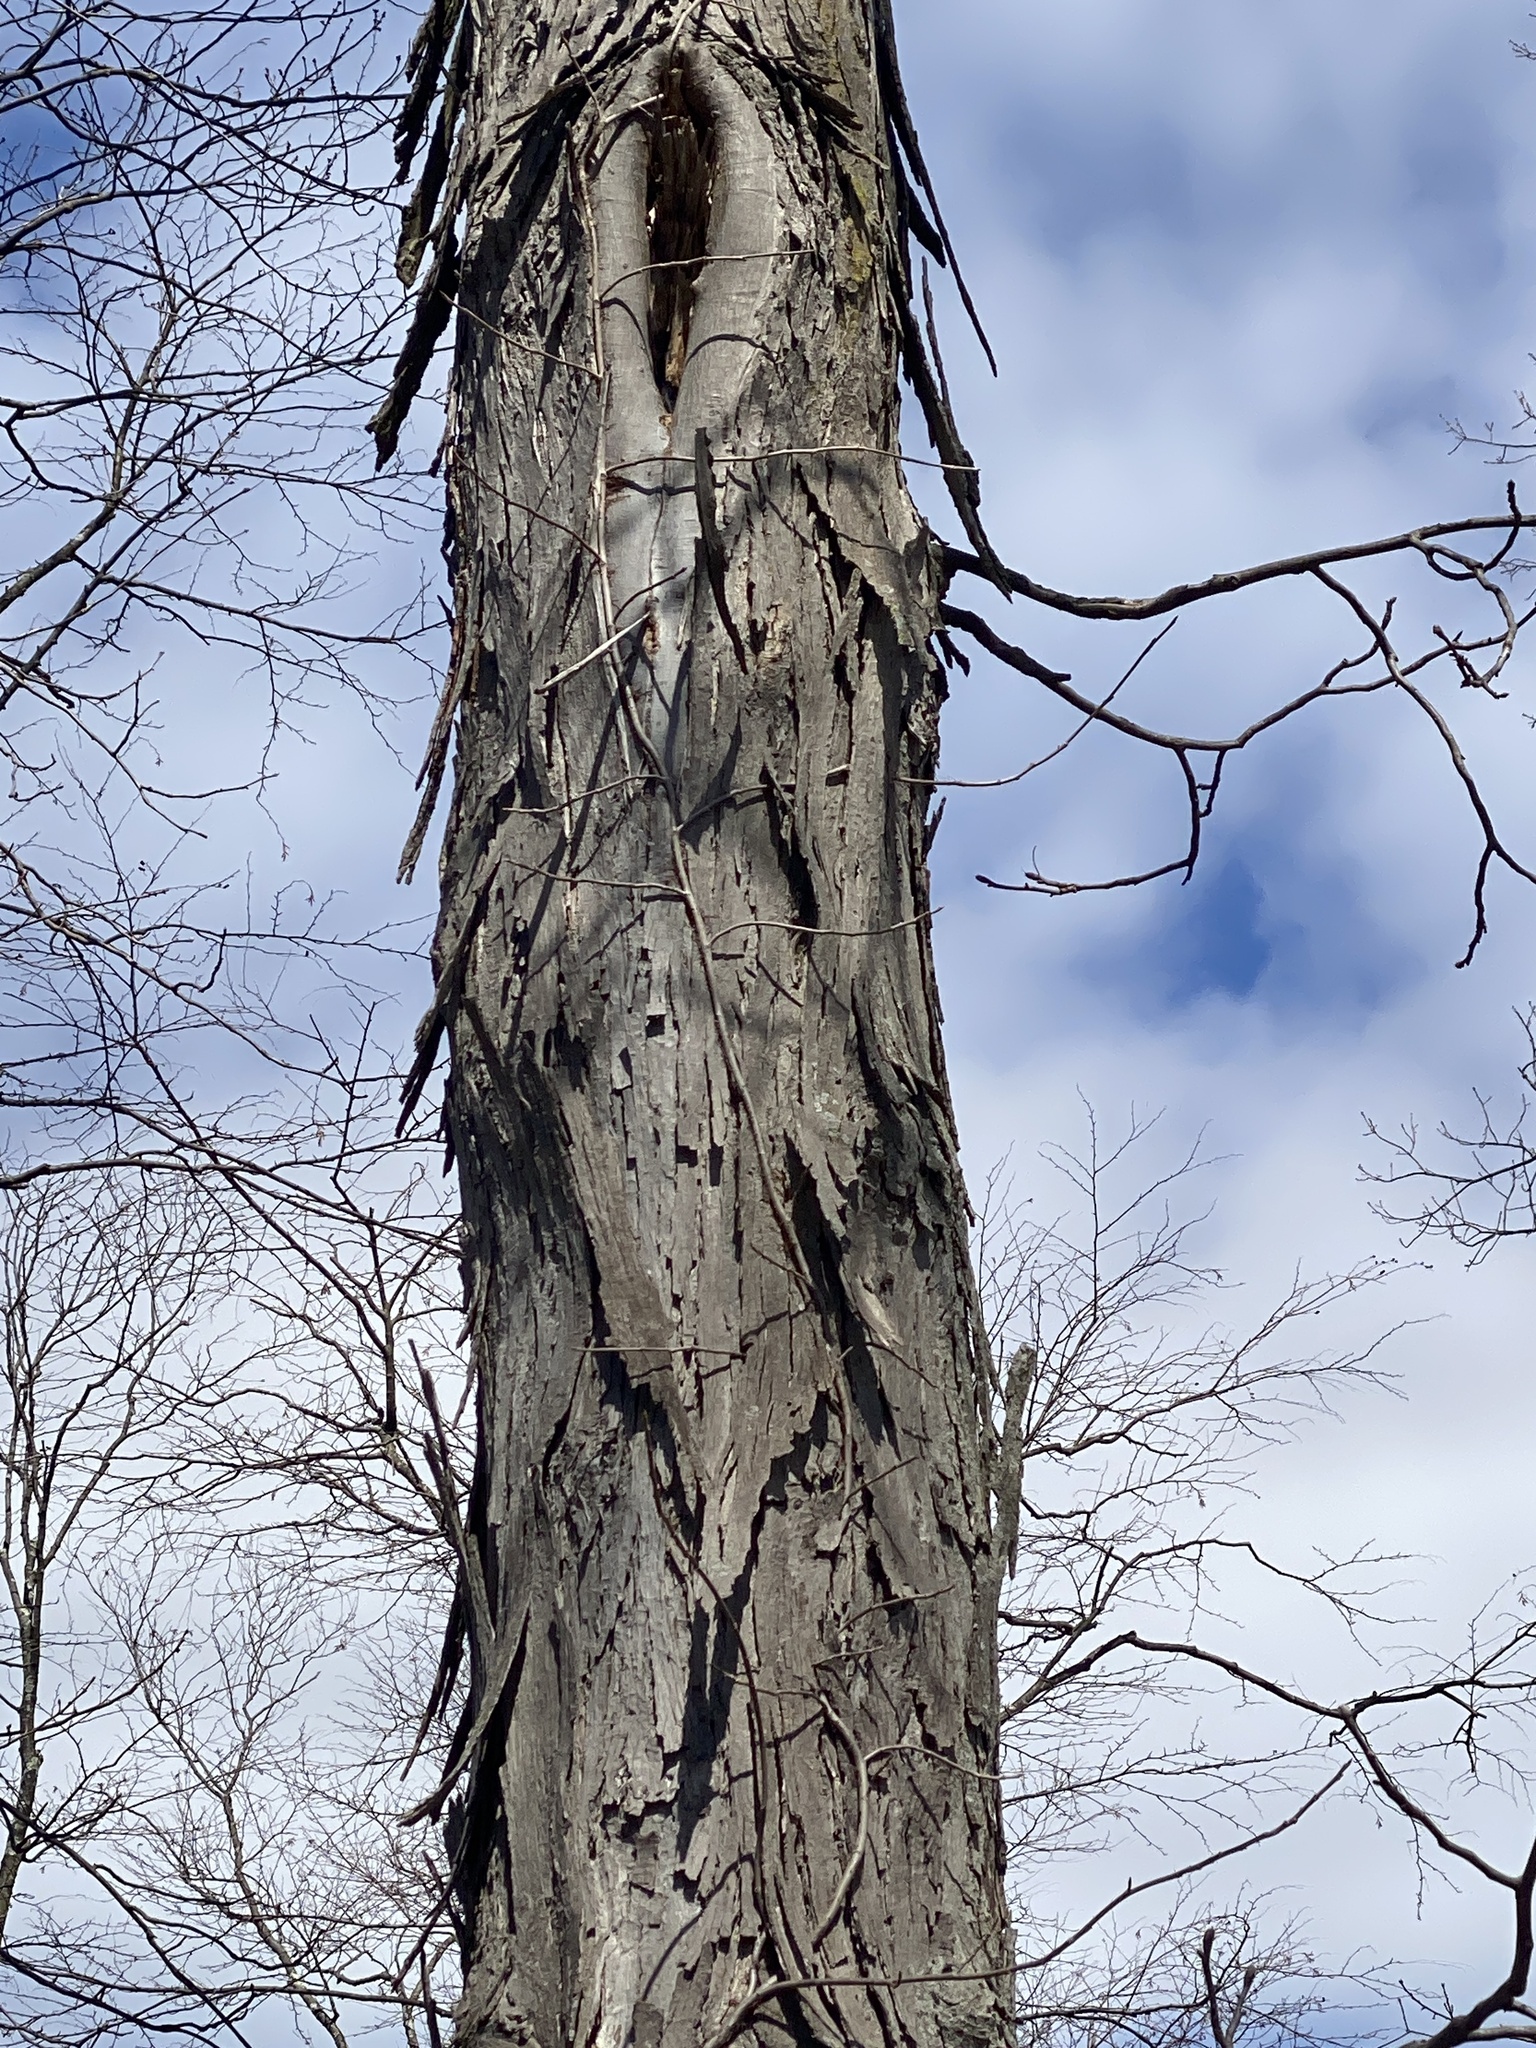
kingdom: Plantae
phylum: Tracheophyta
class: Magnoliopsida
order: Fagales
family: Juglandaceae
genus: Carya
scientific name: Carya ovata
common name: Shagbark hickory
